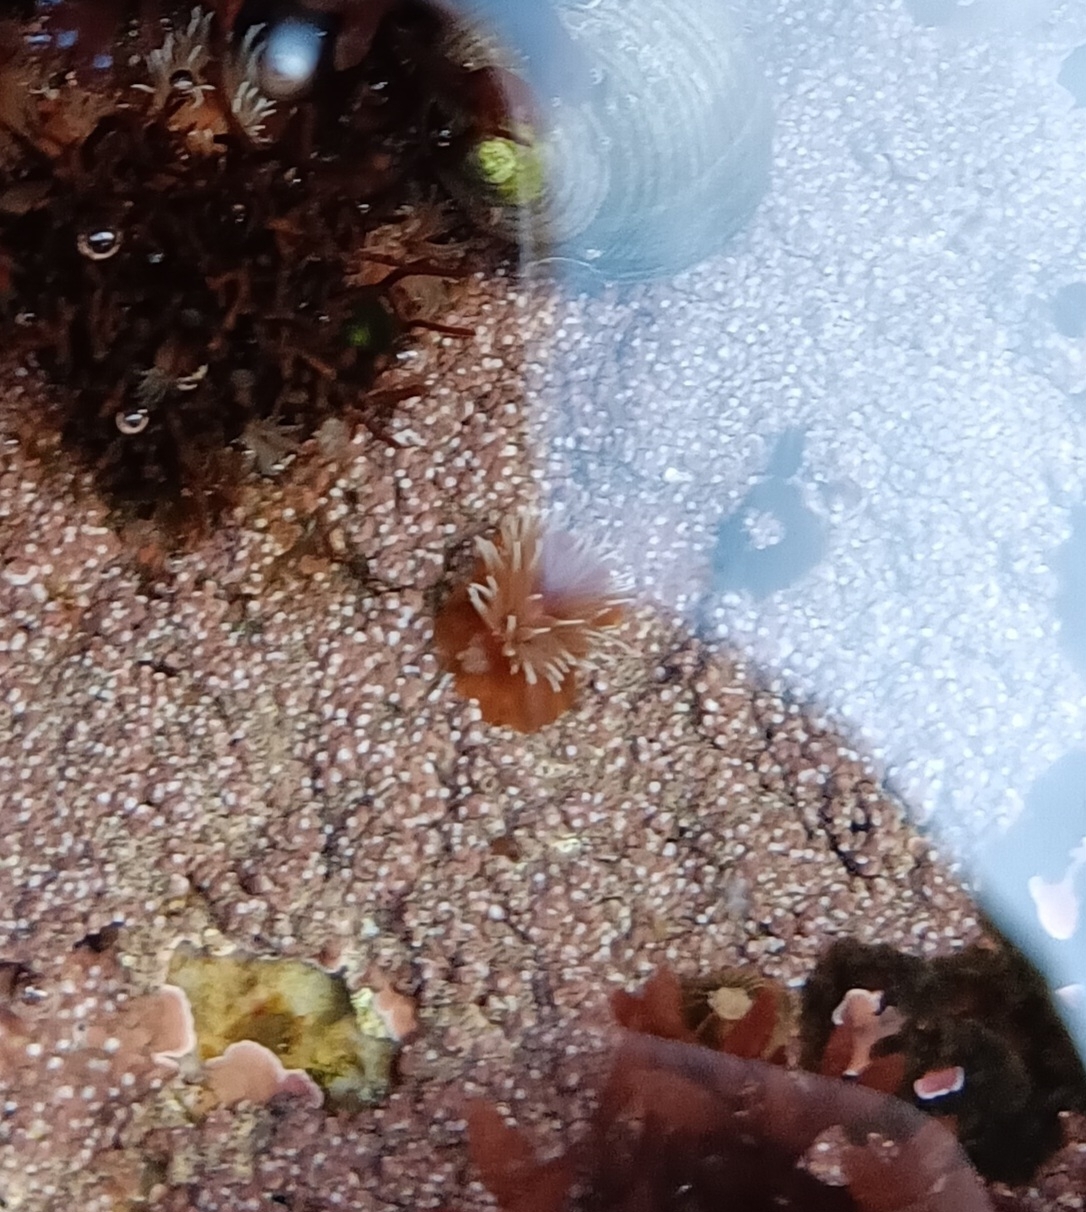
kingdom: Animalia
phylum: Cnidaria
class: Anthozoa
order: Actiniaria
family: Metridiidae
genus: Metridium
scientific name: Metridium senile
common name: Clonal plumose anemone
